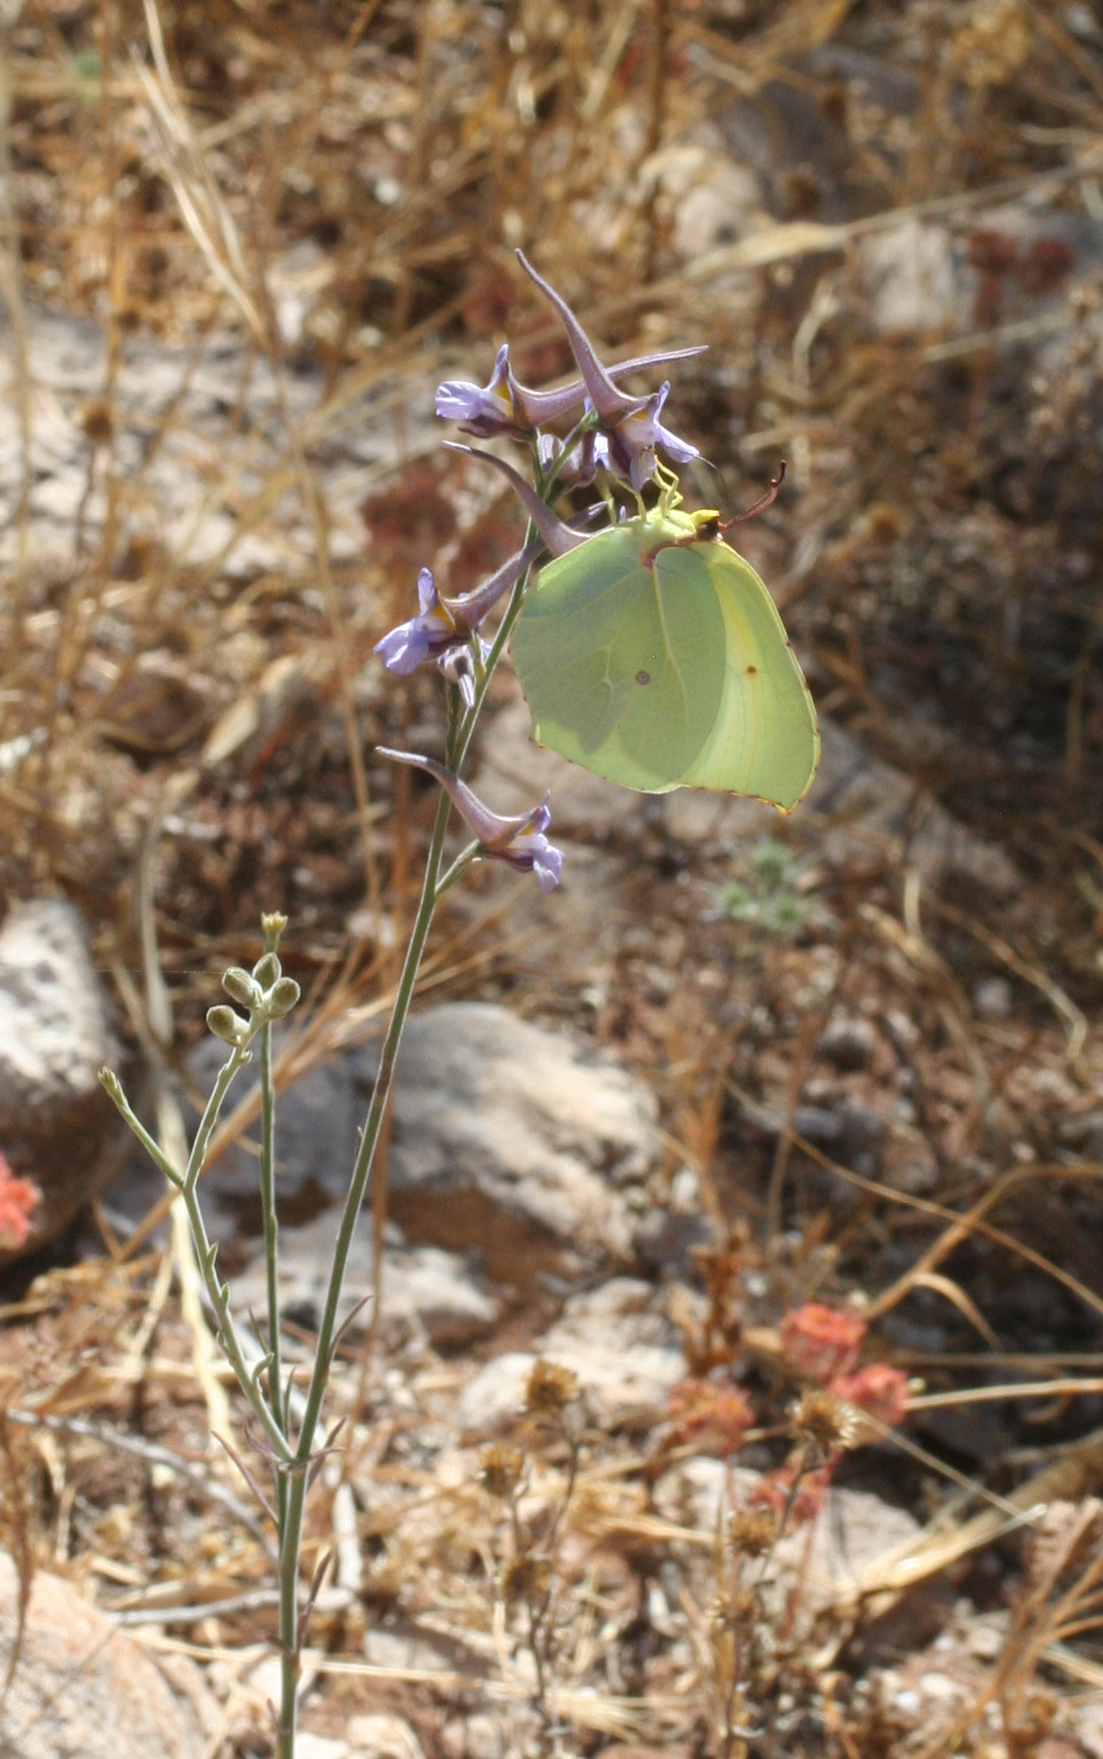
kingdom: Animalia
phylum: Arthropoda
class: Insecta
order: Lepidoptera
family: Pieridae
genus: Gonepteryx
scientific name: Gonepteryx cleopatra
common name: Cleopatra
